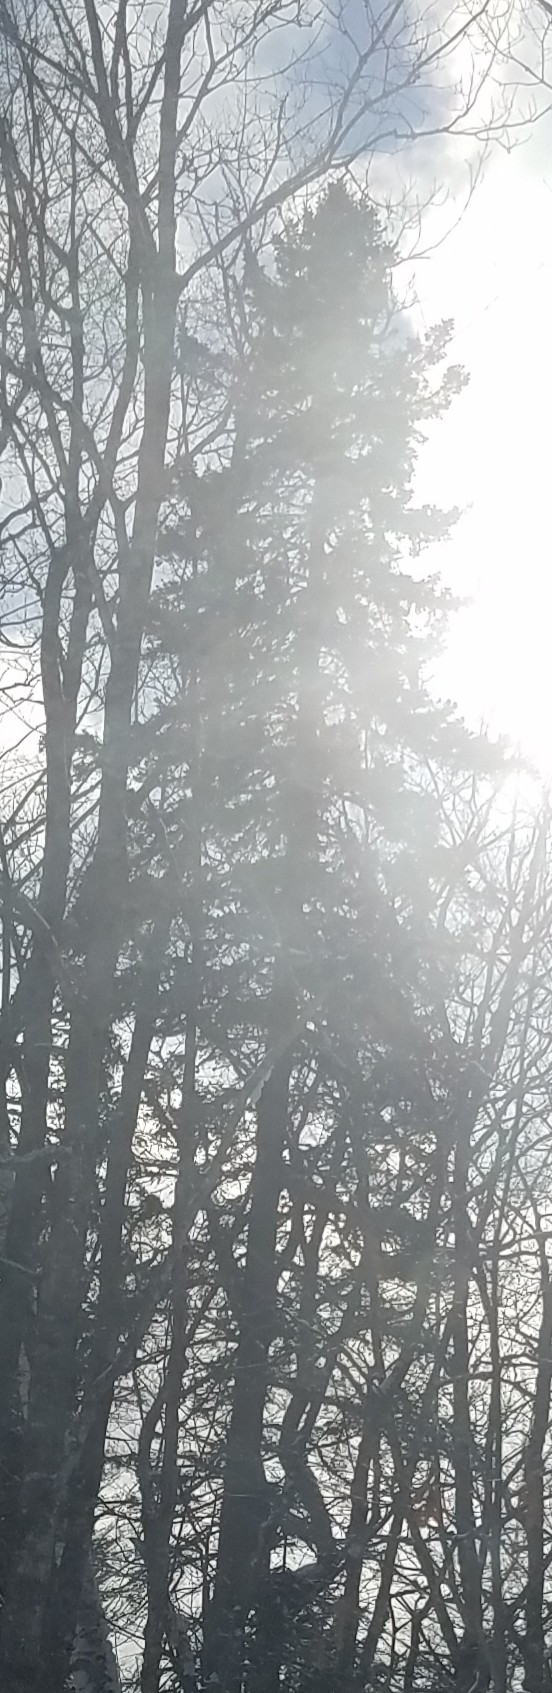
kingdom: Plantae
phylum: Tracheophyta
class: Pinopsida
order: Pinales
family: Pinaceae
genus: Pinus
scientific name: Pinus strobus
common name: Weymouth pine
